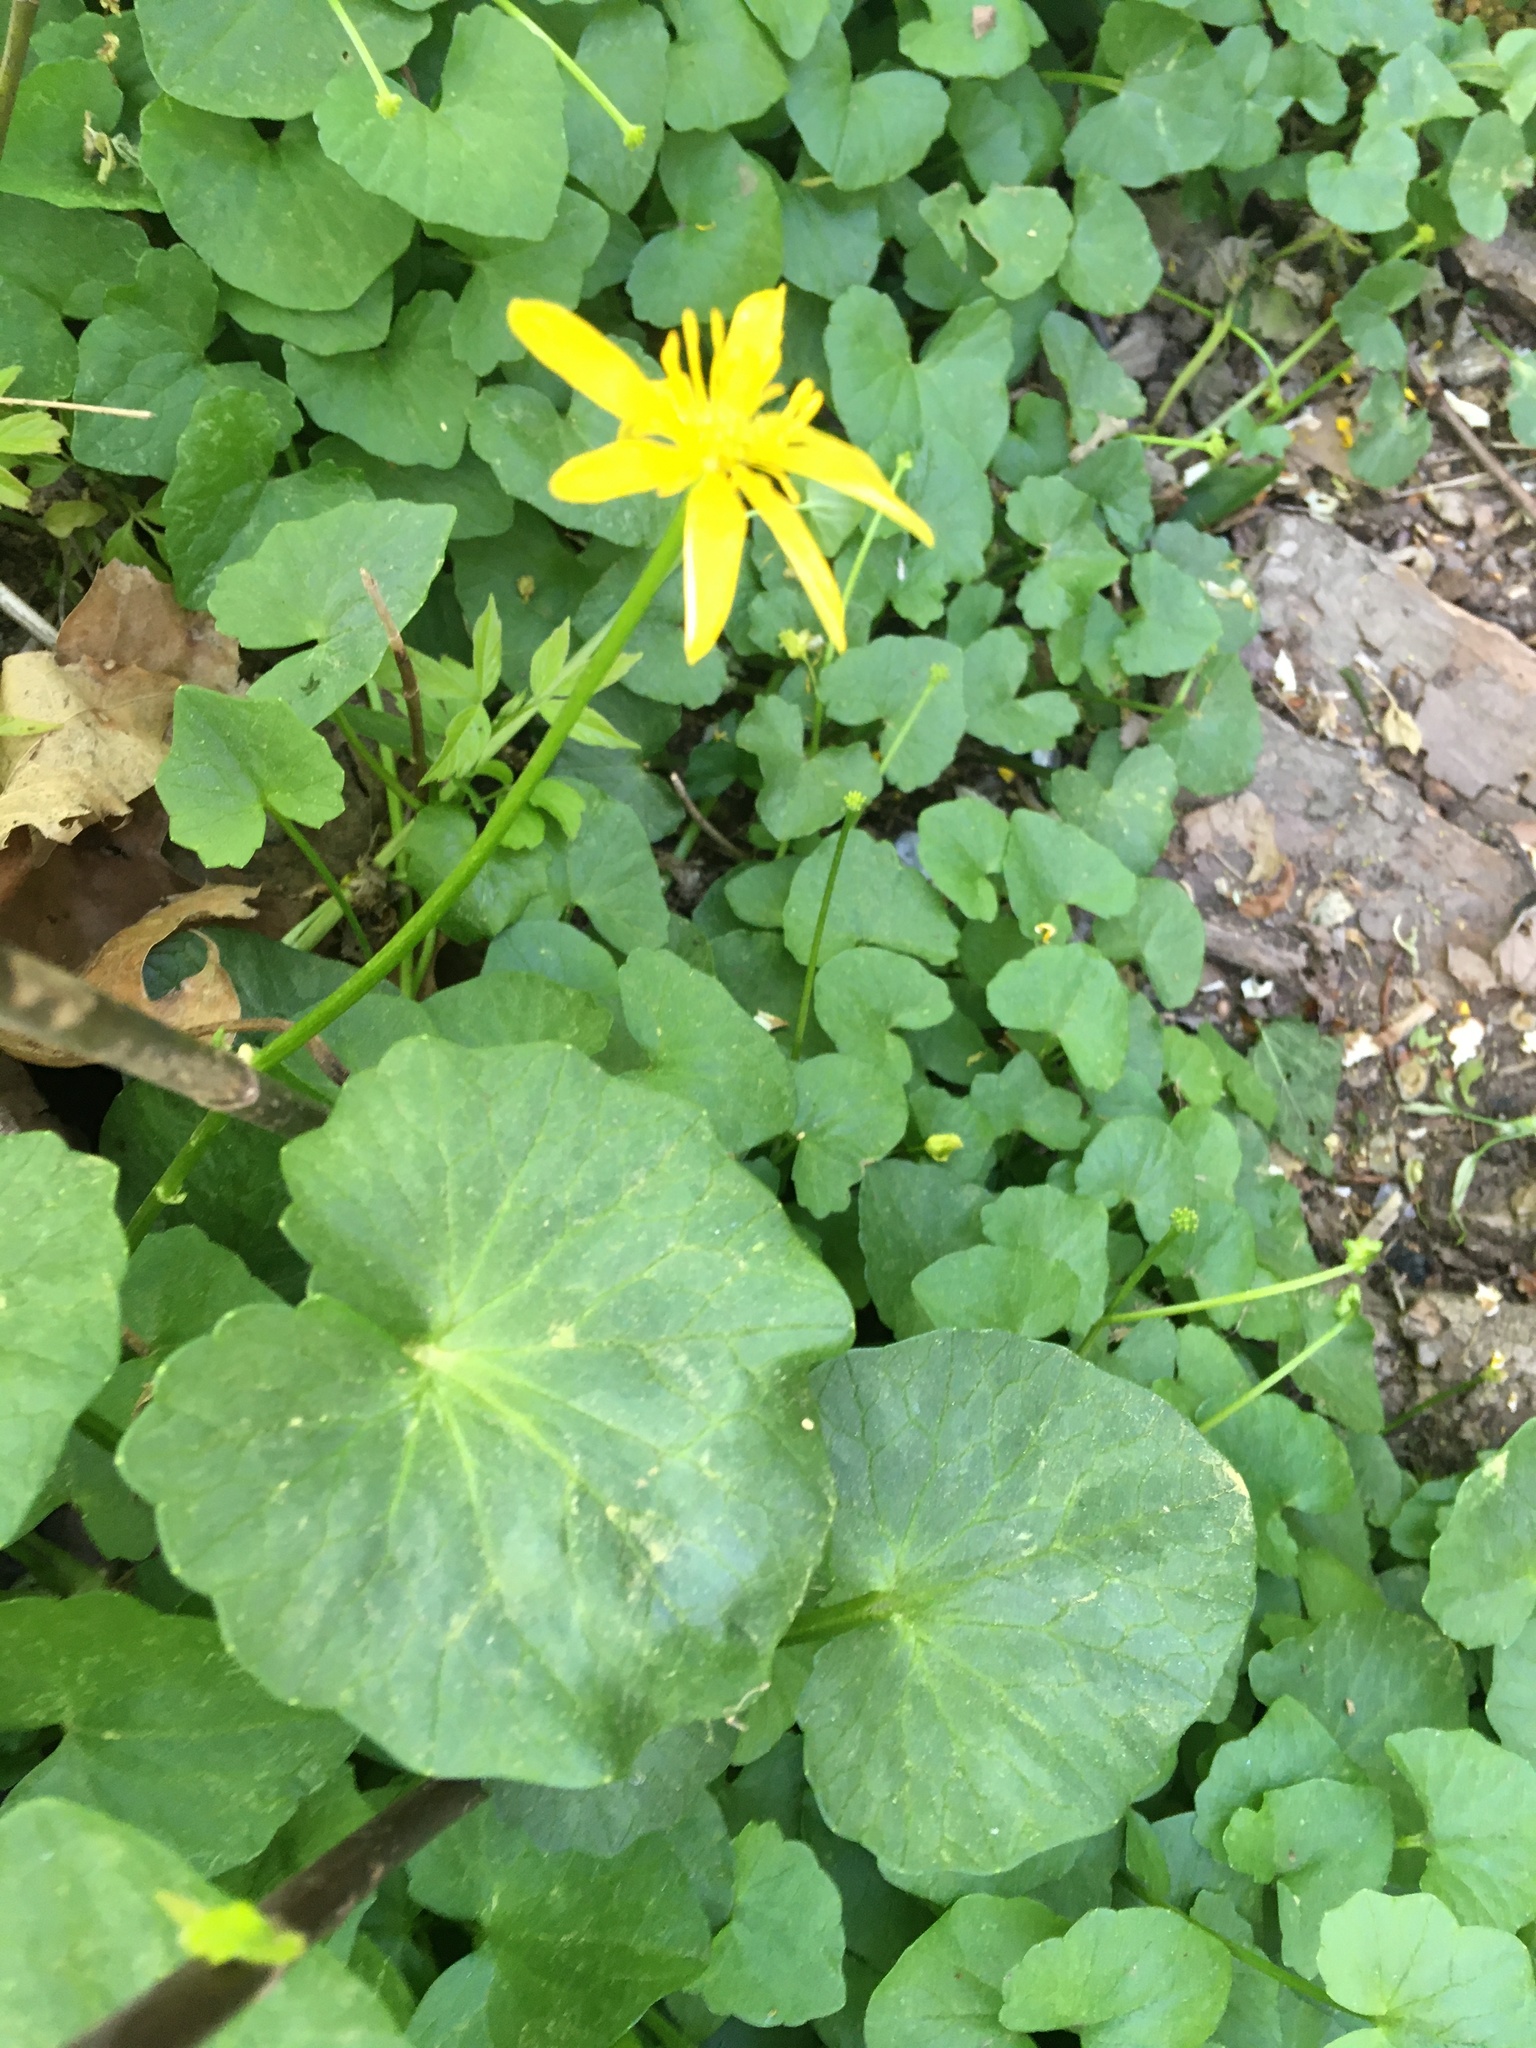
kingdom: Plantae
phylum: Tracheophyta
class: Magnoliopsida
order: Ranunculales
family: Ranunculaceae
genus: Ficaria
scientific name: Ficaria verna
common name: Lesser celandine
